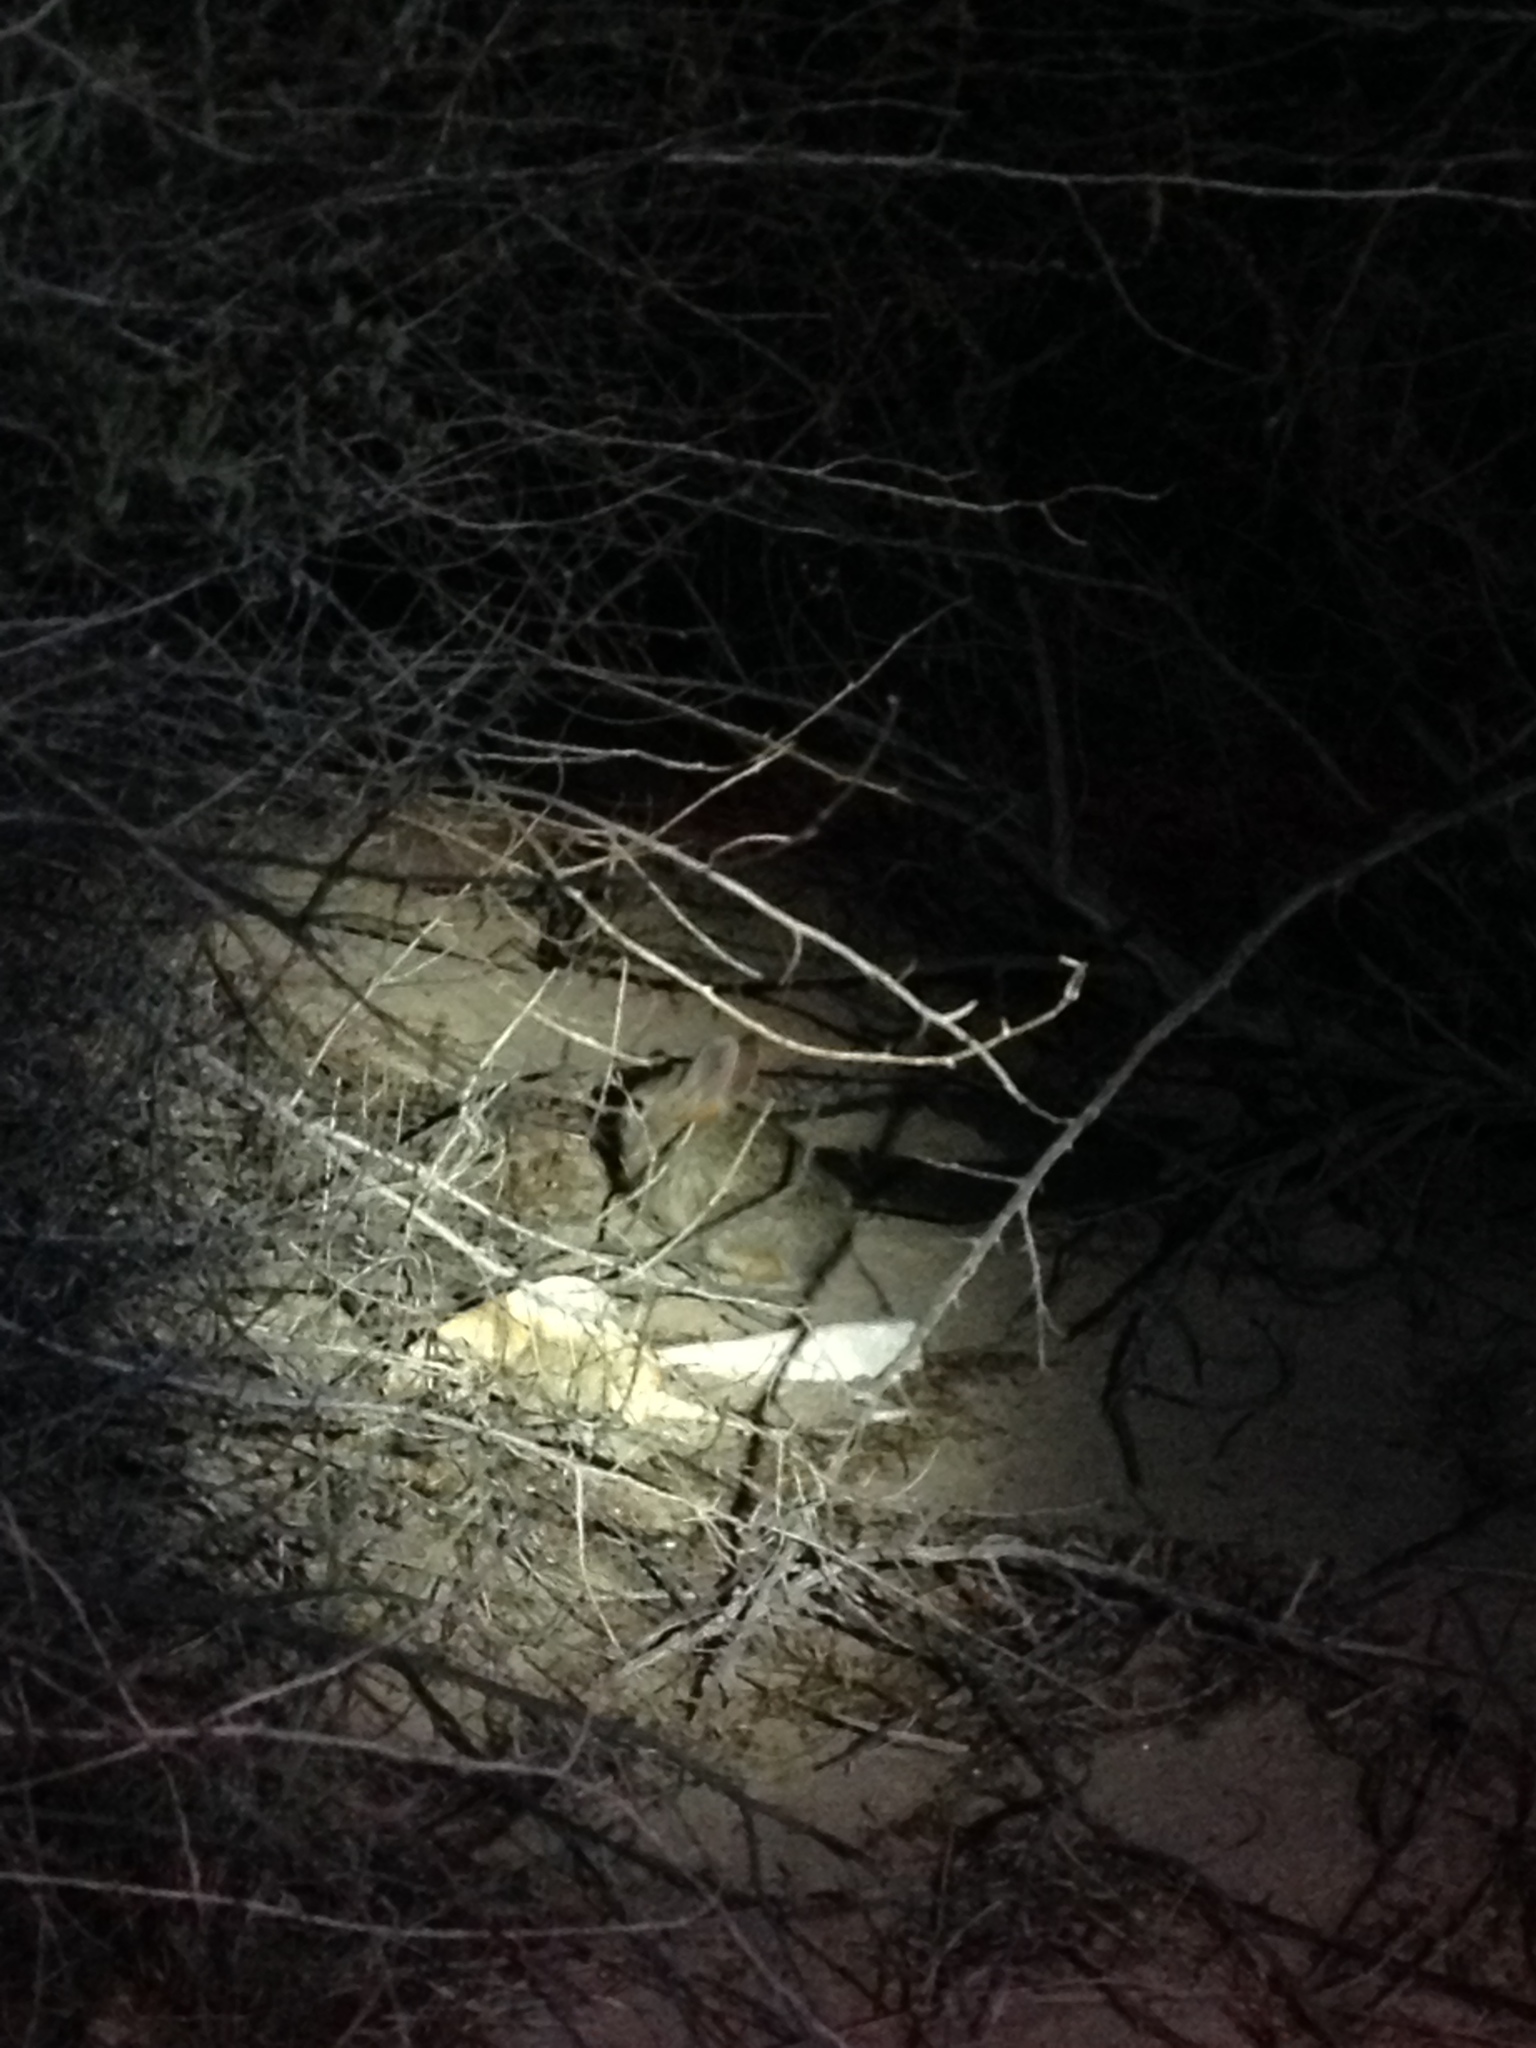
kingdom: Animalia
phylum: Chordata
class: Mammalia
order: Lagomorpha
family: Leporidae
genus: Sylvilagus
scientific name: Sylvilagus audubonii
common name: Desert cottontail
